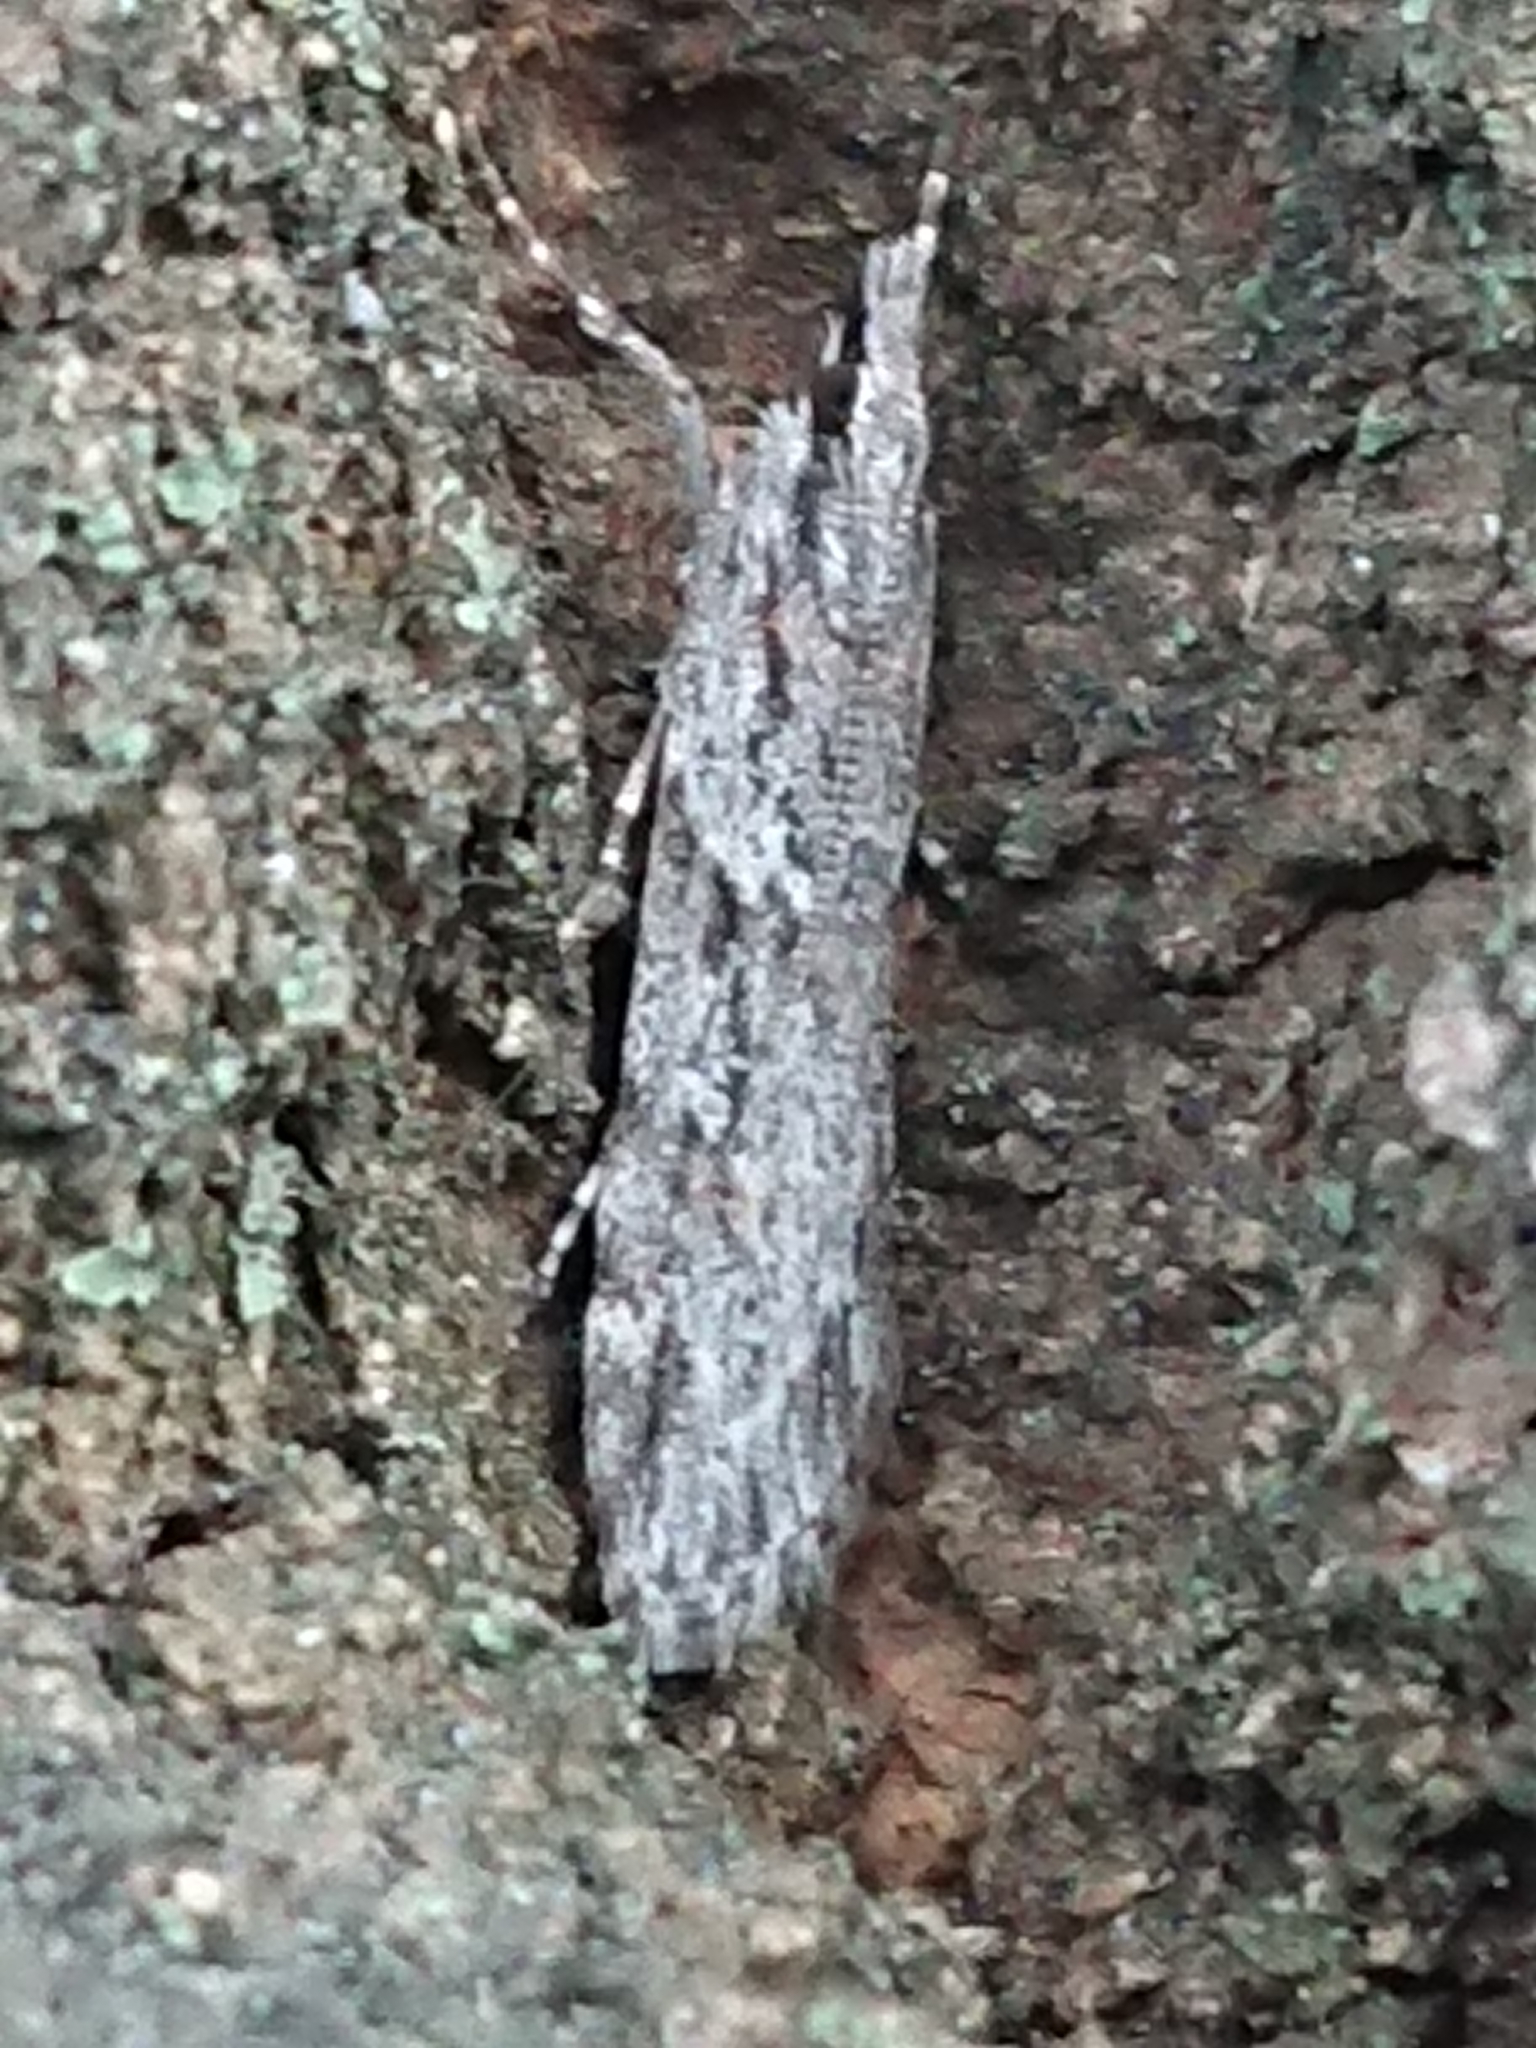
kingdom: Animalia
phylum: Arthropoda
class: Insecta
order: Lepidoptera
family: Crambidae
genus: Scoparia
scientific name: Scoparia chalicodes
